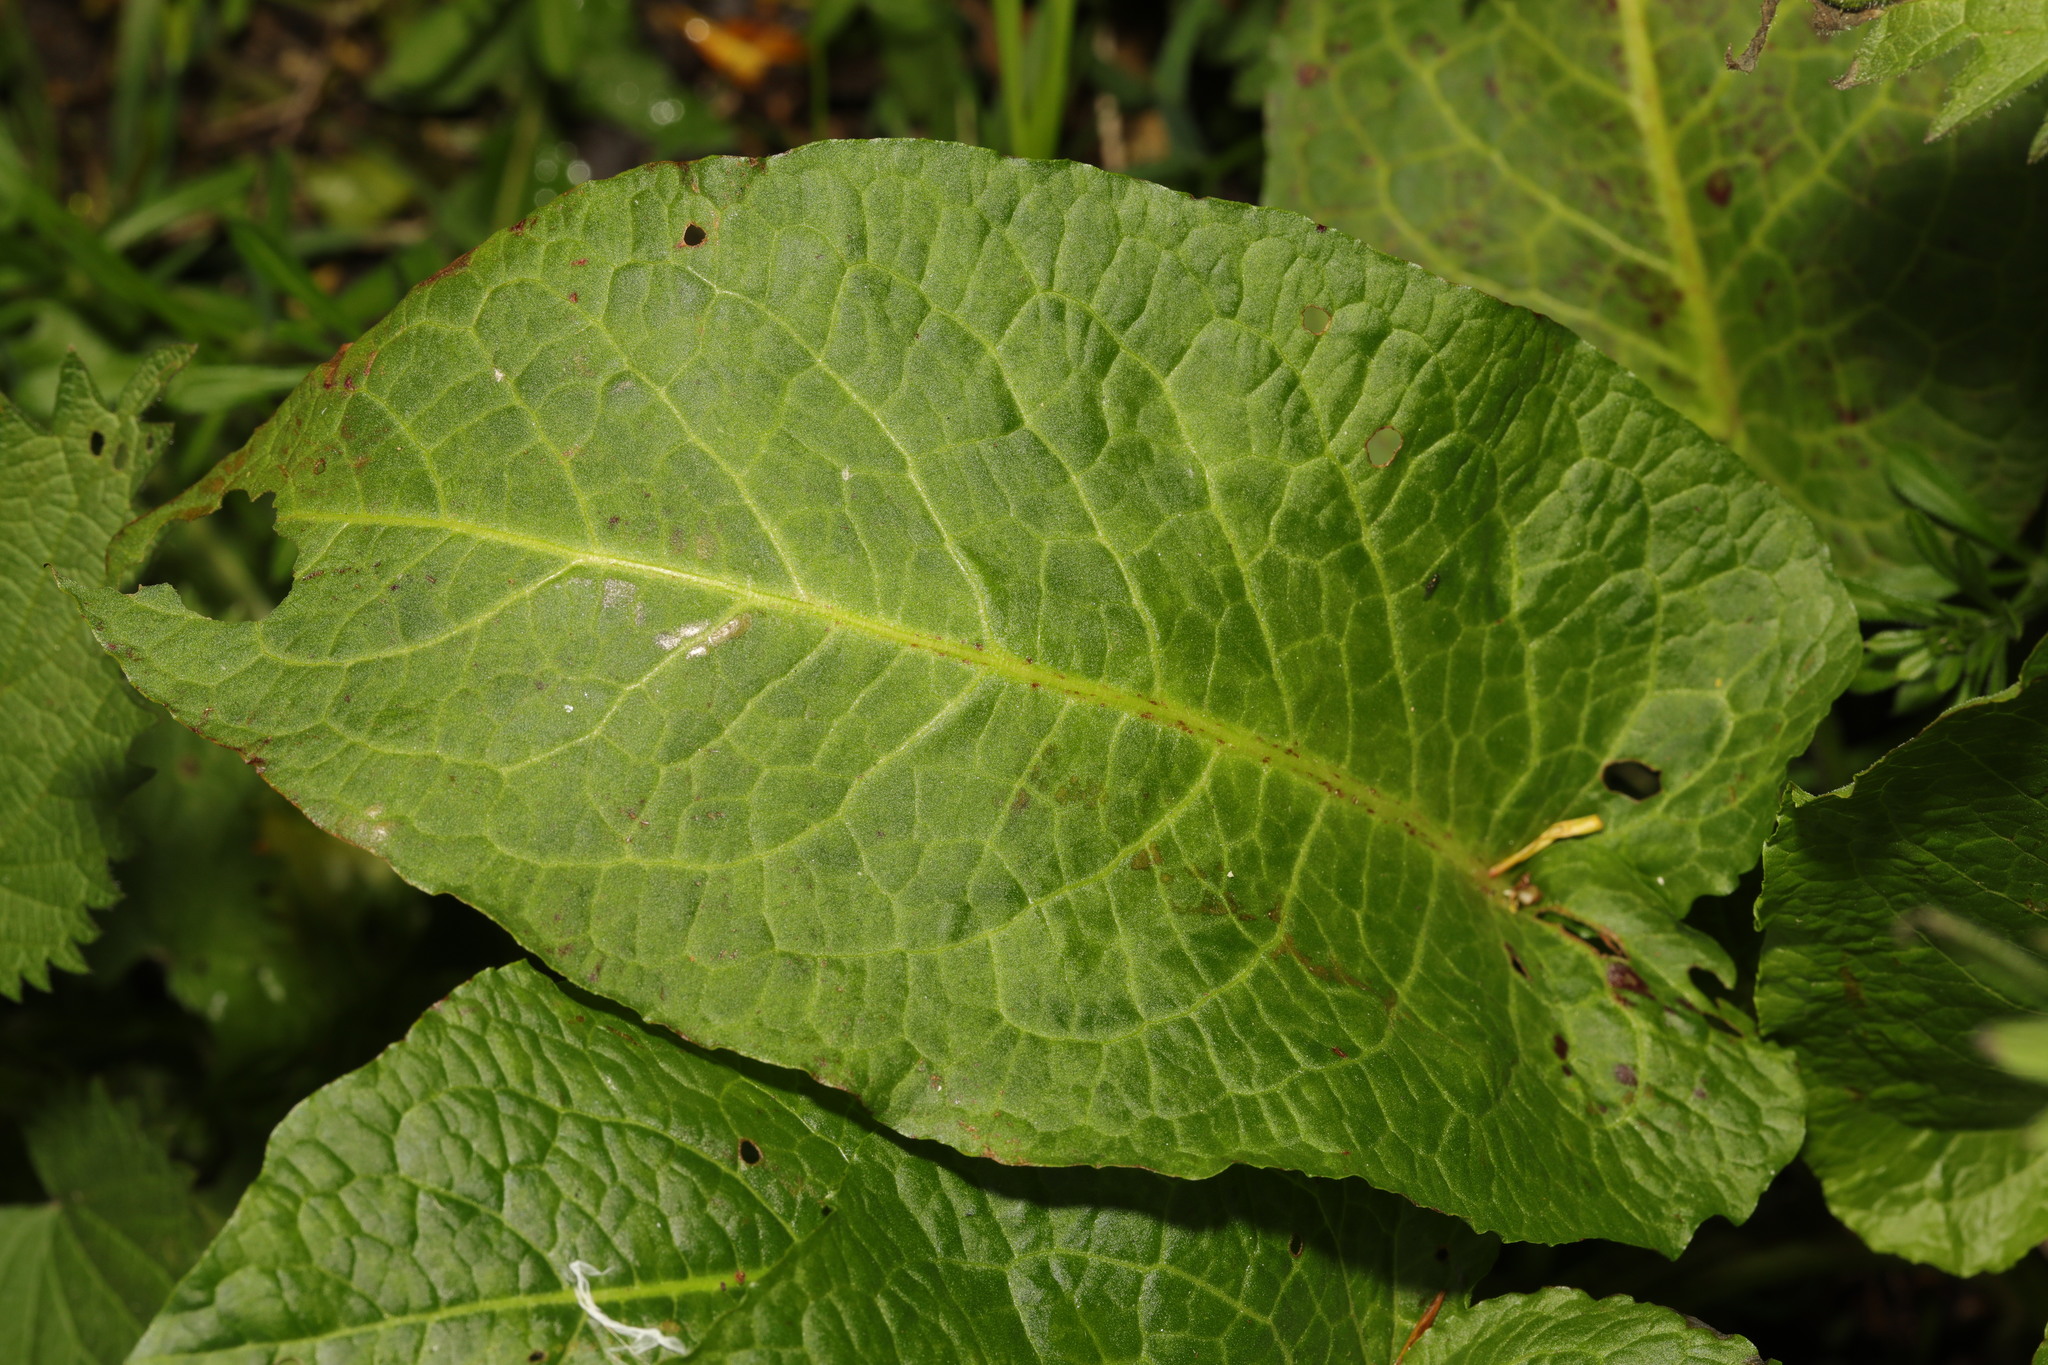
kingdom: Plantae
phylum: Tracheophyta
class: Magnoliopsida
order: Caryophyllales
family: Polygonaceae
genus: Rumex
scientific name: Rumex obtusifolius
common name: Bitter dock
